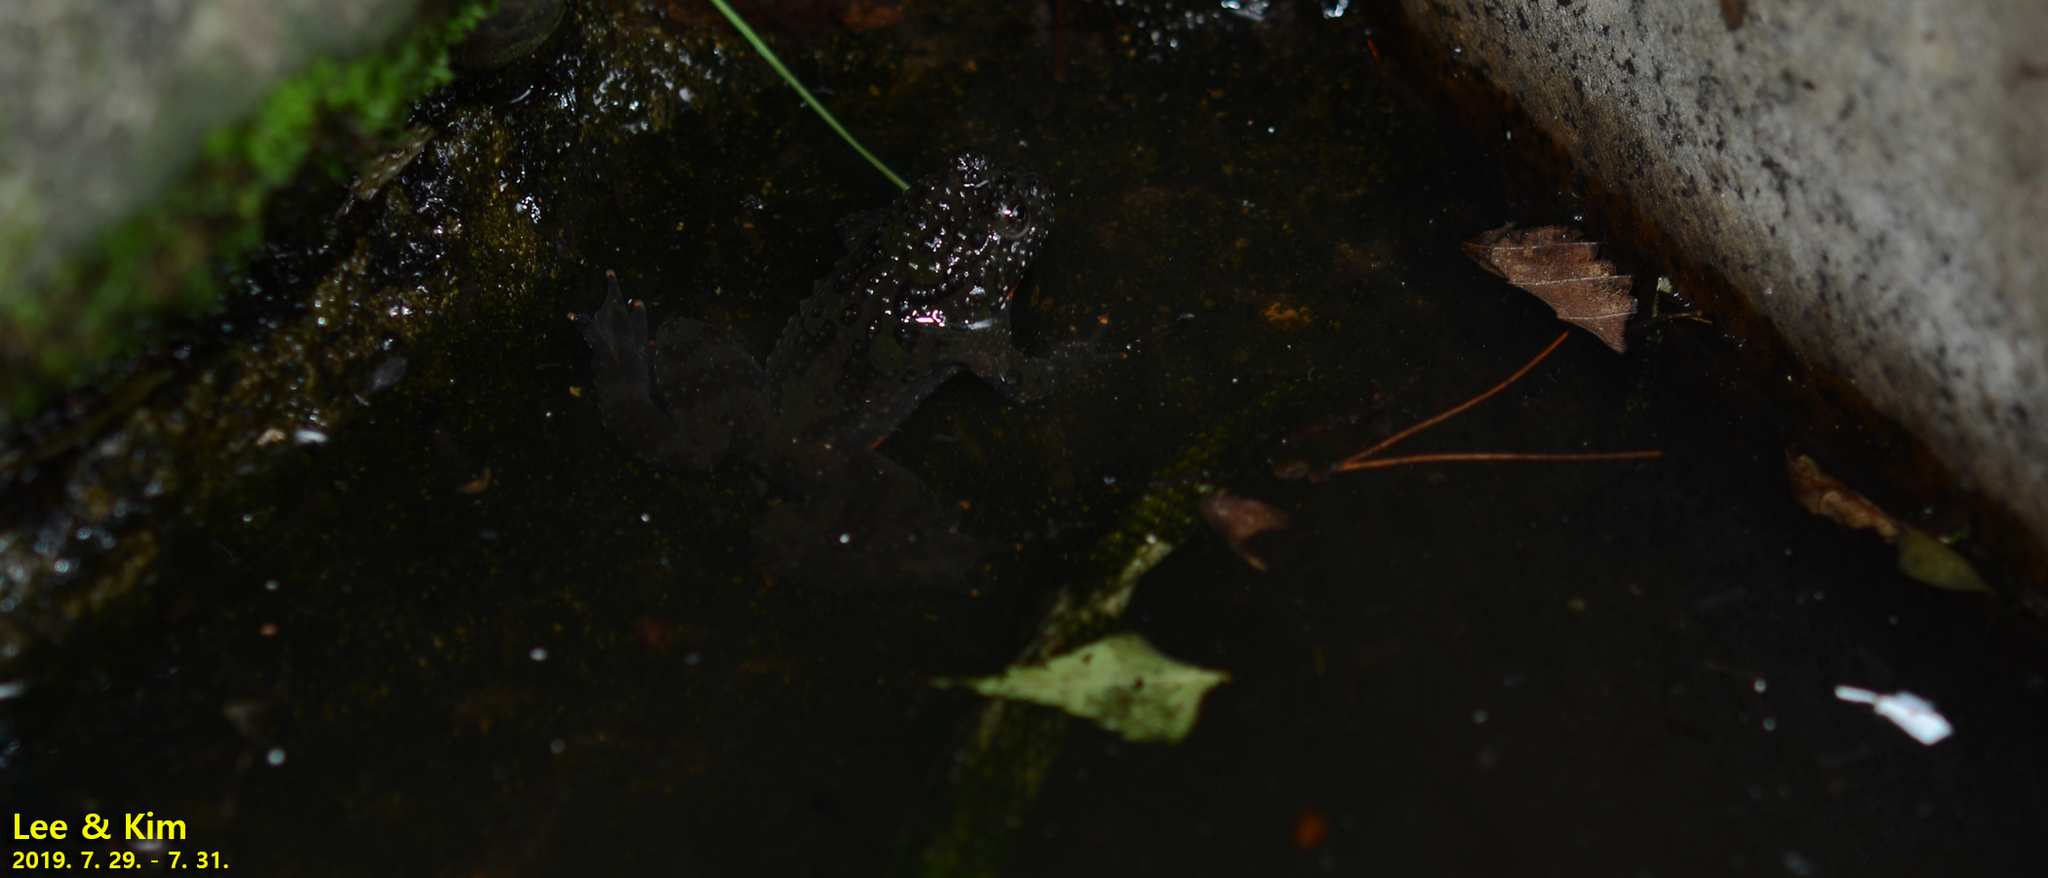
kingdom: Animalia
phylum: Chordata
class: Amphibia
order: Anura
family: Bombinatoridae
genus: Bombina
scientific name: Bombina orientalis
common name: Oriental firebelly toad
